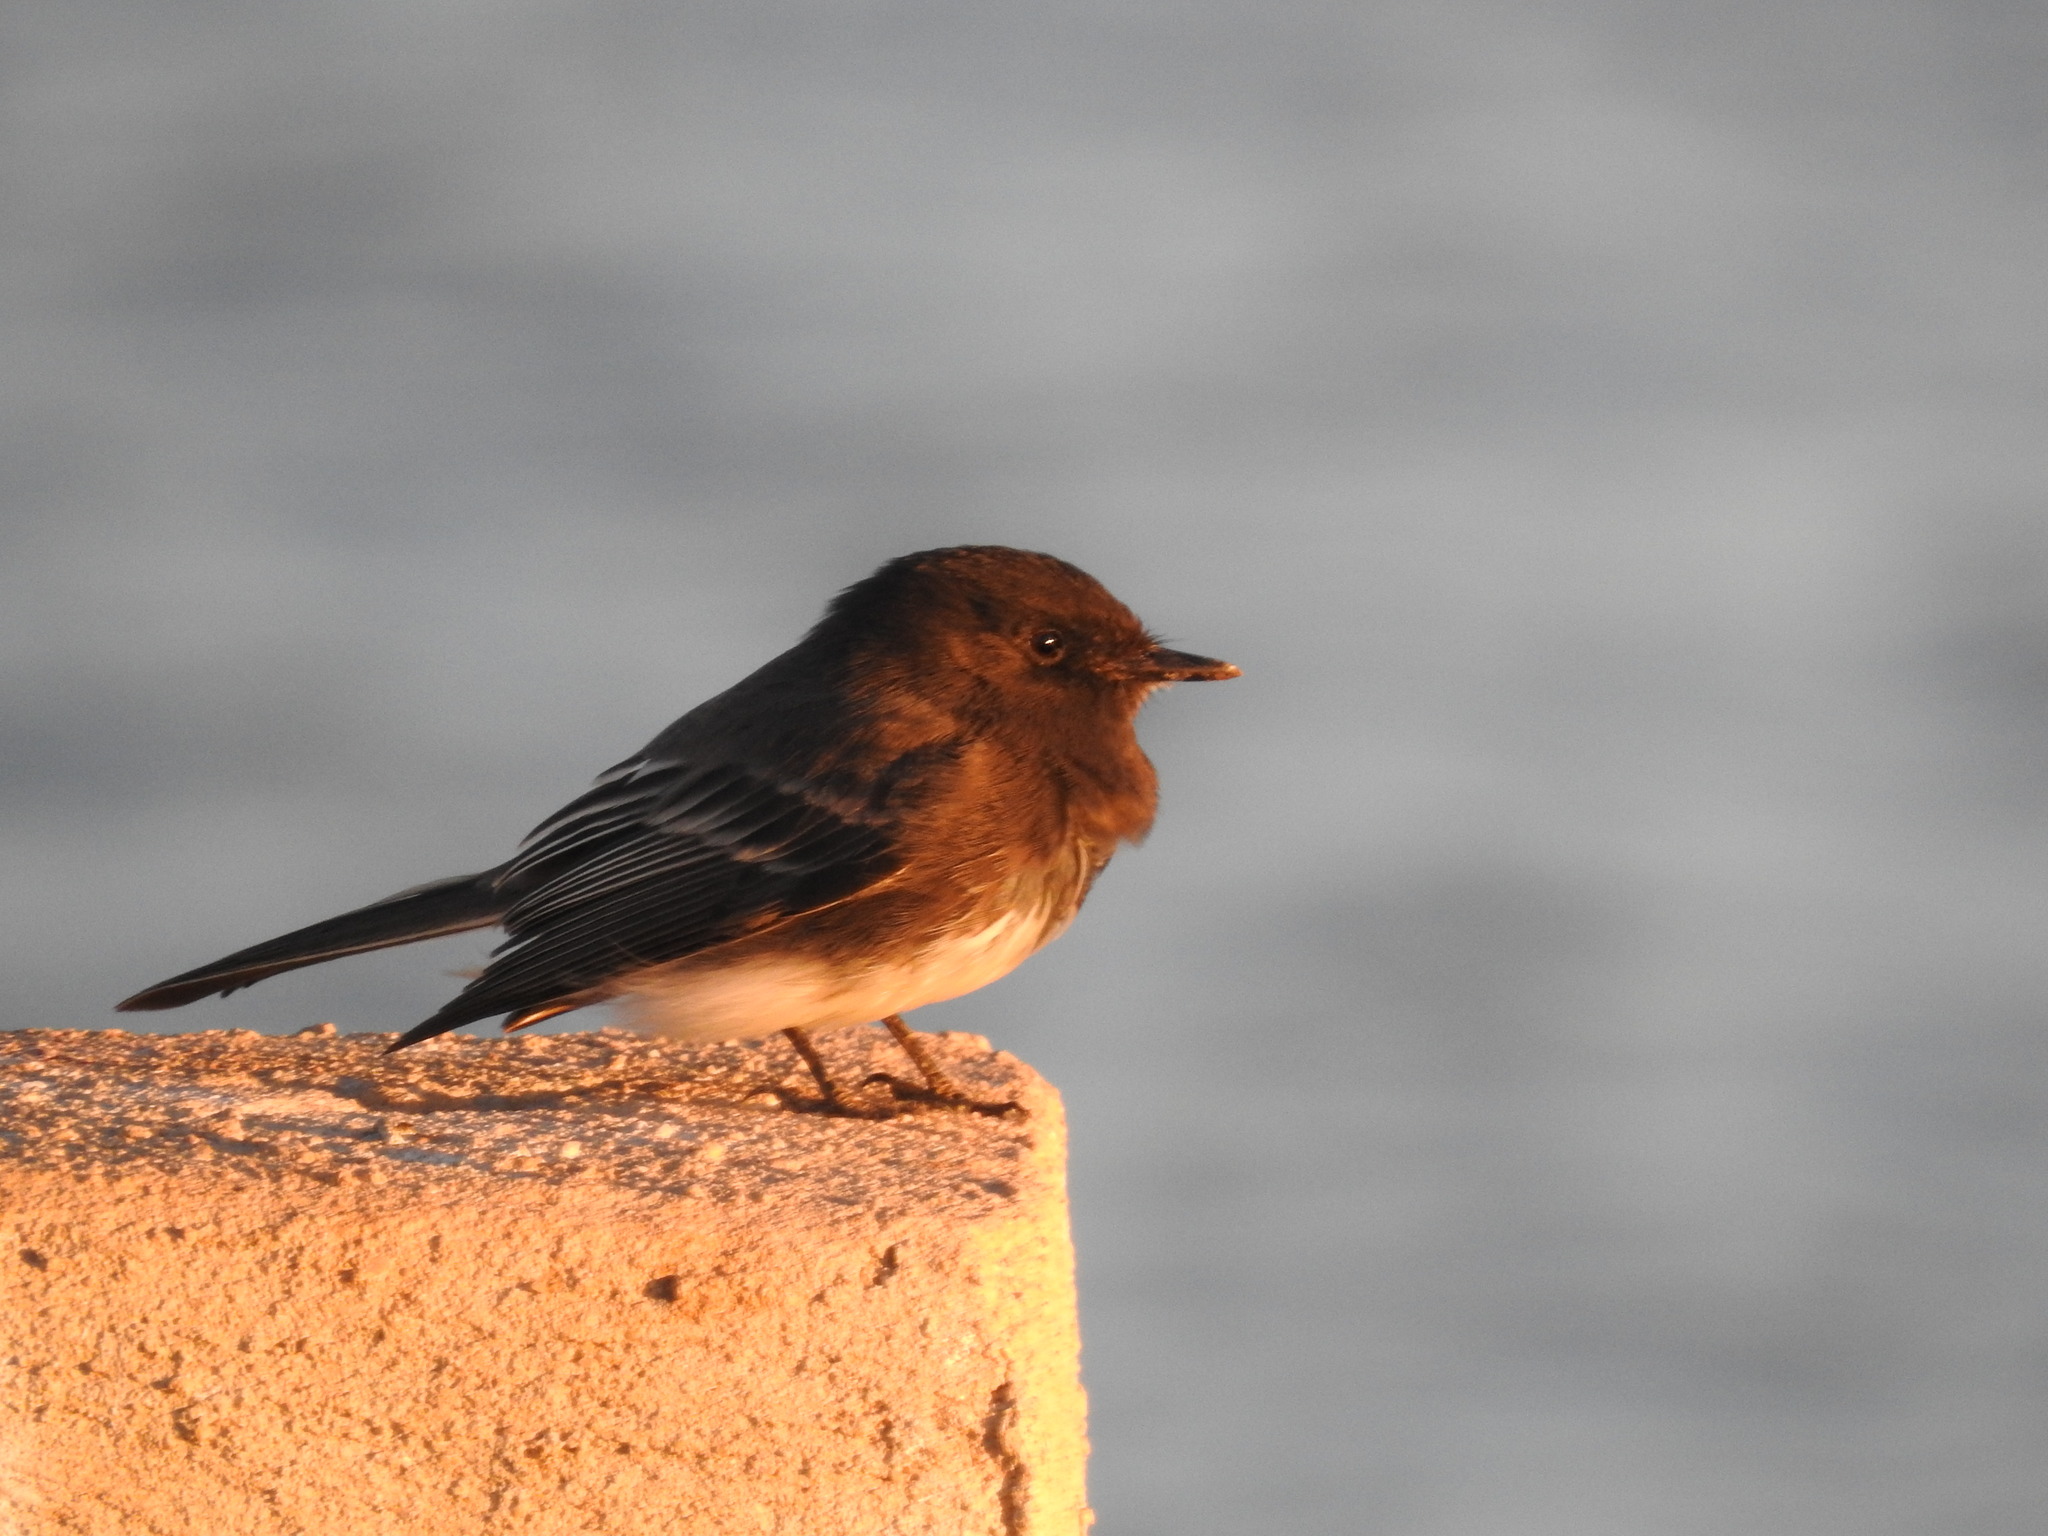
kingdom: Animalia
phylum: Chordata
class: Aves
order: Passeriformes
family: Tyrannidae
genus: Sayornis
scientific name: Sayornis nigricans
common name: Black phoebe
